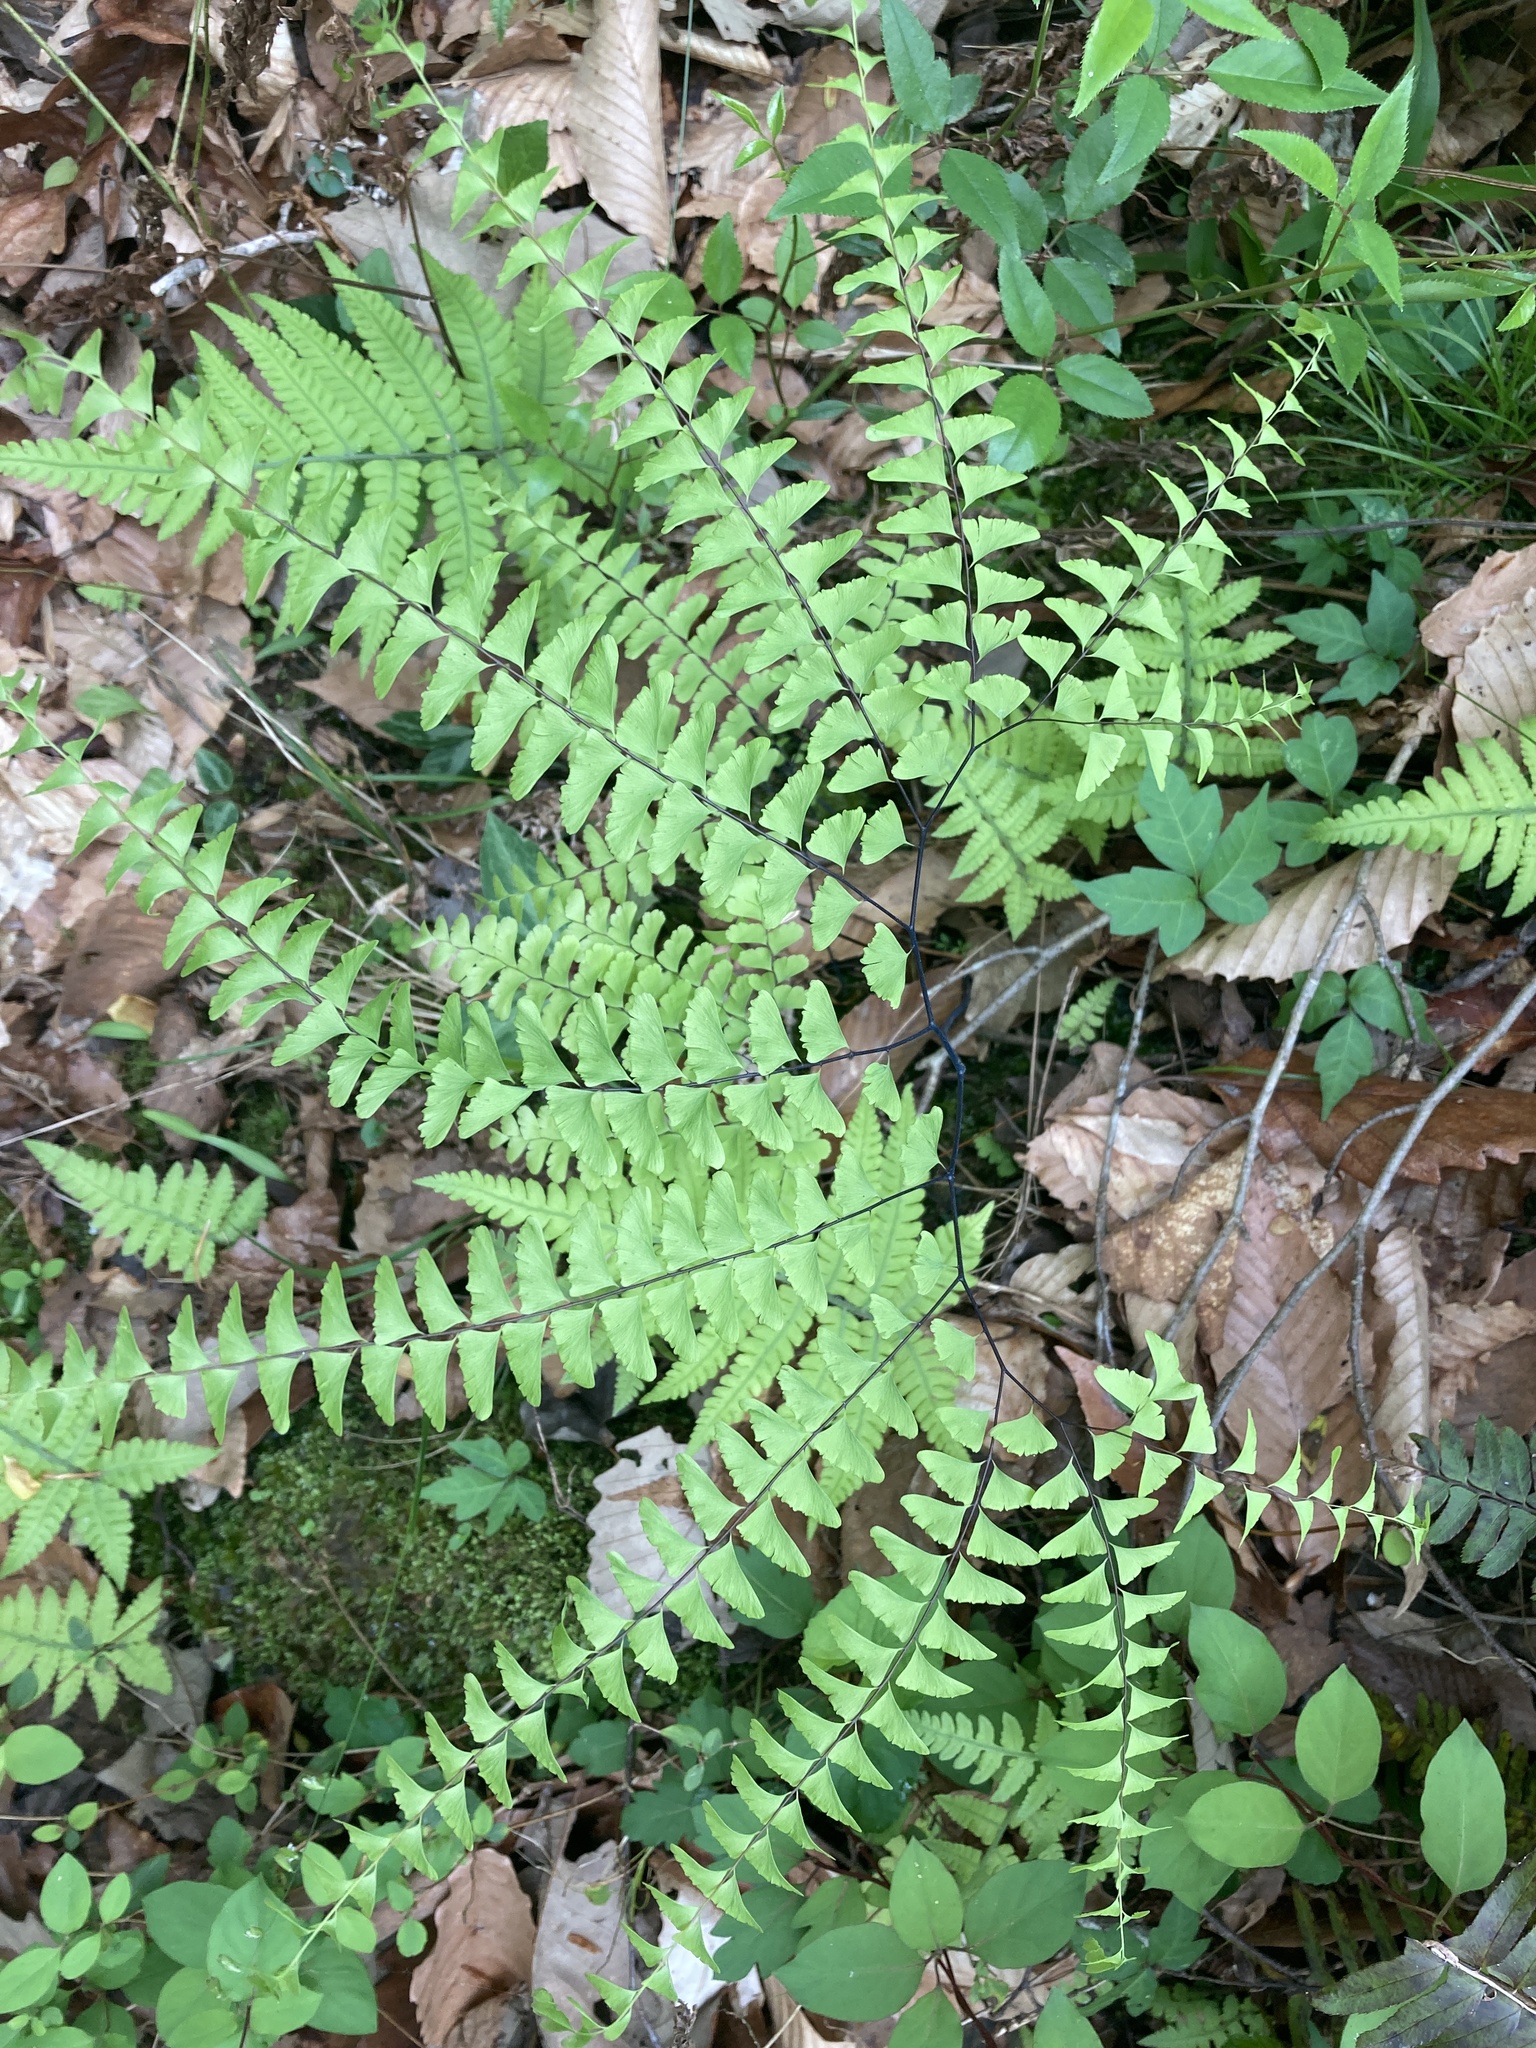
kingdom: Plantae
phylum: Tracheophyta
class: Polypodiopsida
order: Polypodiales
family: Pteridaceae
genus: Adiantum
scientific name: Adiantum pedatum
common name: Five-finger fern
